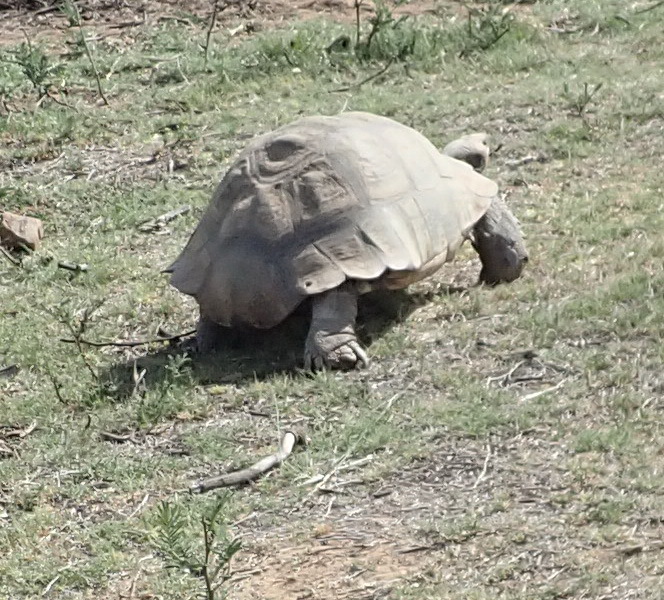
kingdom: Animalia
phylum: Chordata
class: Testudines
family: Testudinidae
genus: Stigmochelys
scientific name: Stigmochelys pardalis
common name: Leopard tortoise
